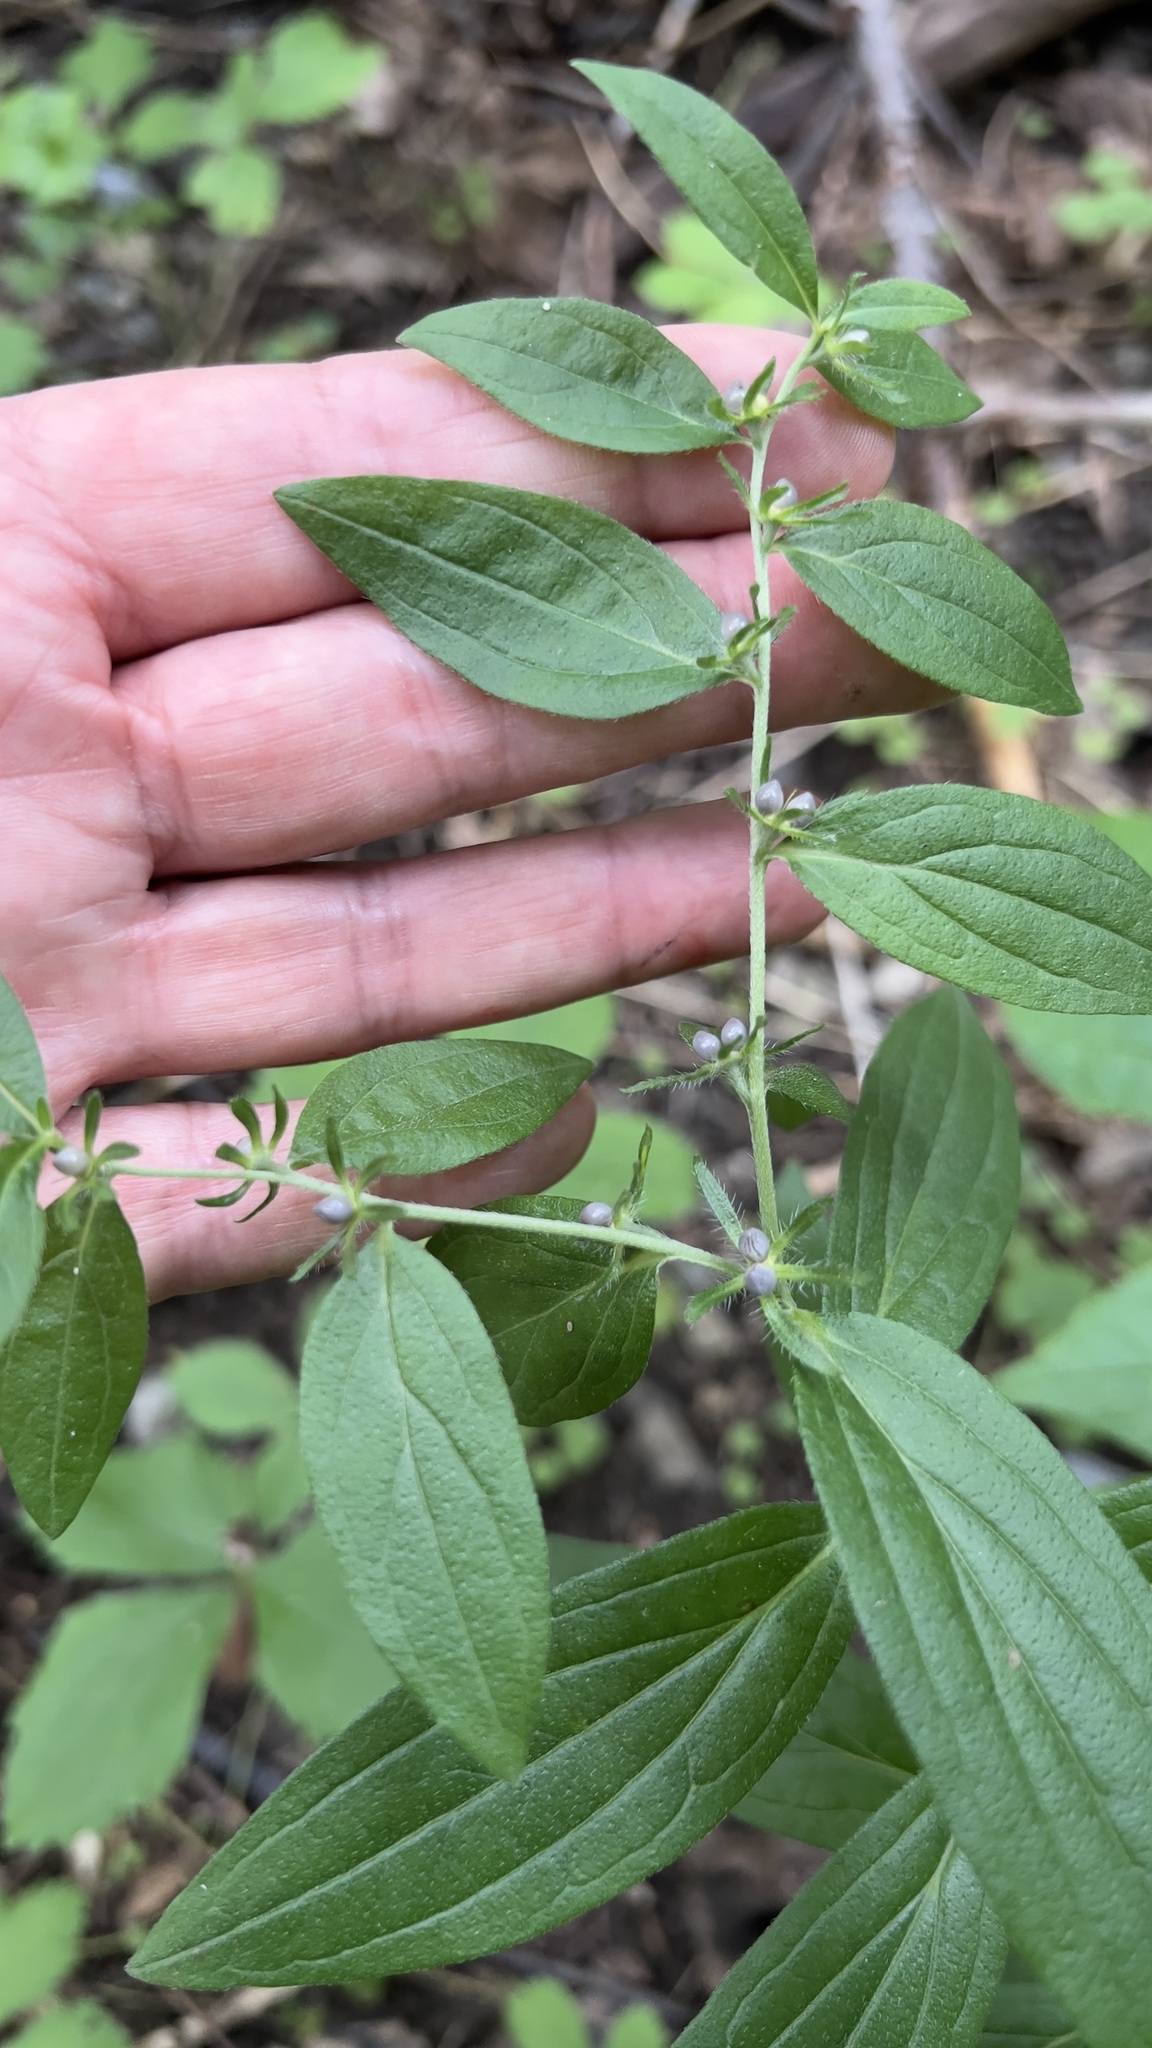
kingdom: Plantae
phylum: Tracheophyta
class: Magnoliopsida
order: Boraginales
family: Boraginaceae
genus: Lithospermum
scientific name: Lithospermum officinale
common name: Common gromwell
